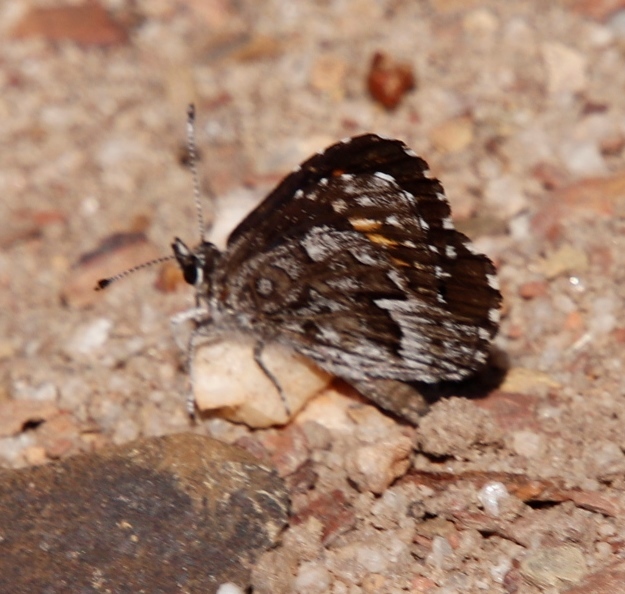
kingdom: Animalia
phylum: Arthropoda
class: Insecta
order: Lepidoptera
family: Lycaenidae
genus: Durbaniopsis
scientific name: Durbaniopsis saga
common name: Boland rocksitter
